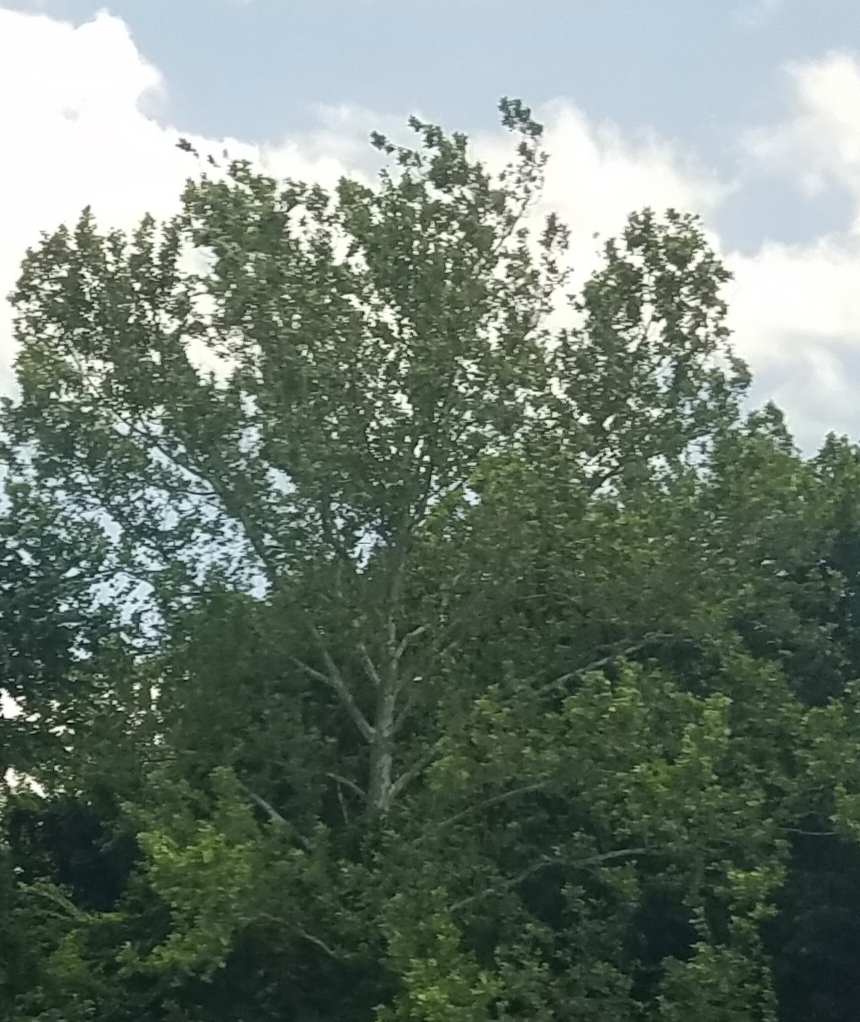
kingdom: Plantae
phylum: Tracheophyta
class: Magnoliopsida
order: Proteales
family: Platanaceae
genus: Platanus
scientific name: Platanus occidentalis
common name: American sycamore
